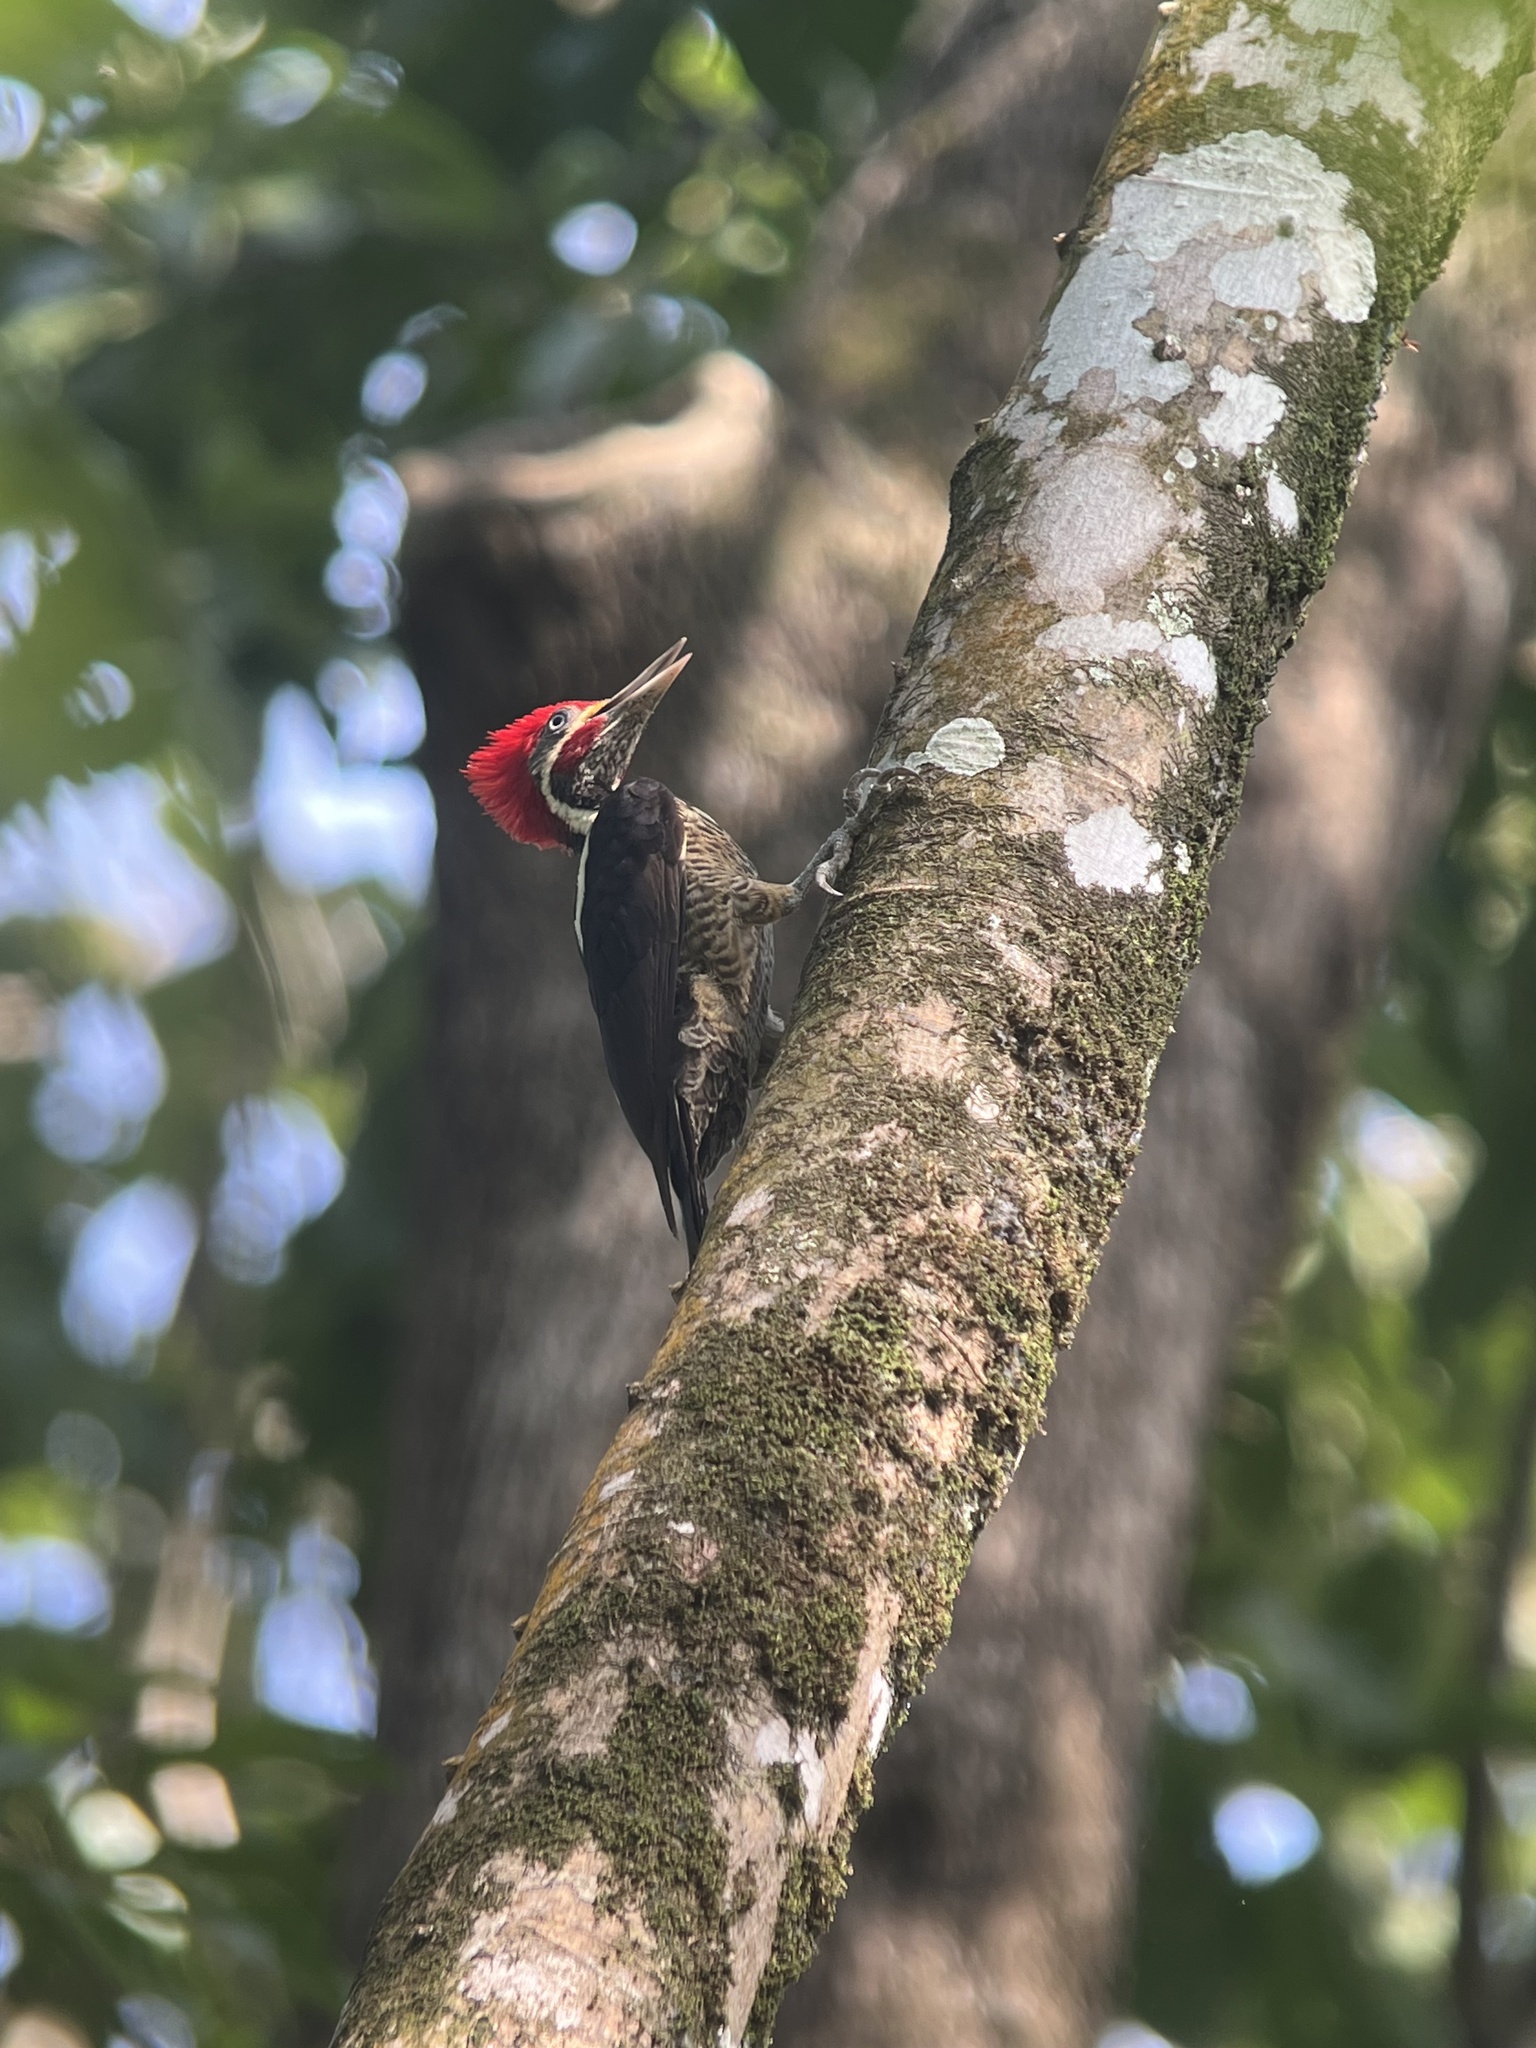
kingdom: Animalia
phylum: Chordata
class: Aves
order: Piciformes
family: Picidae
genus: Dryocopus
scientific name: Dryocopus lineatus
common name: Lineated woodpecker
